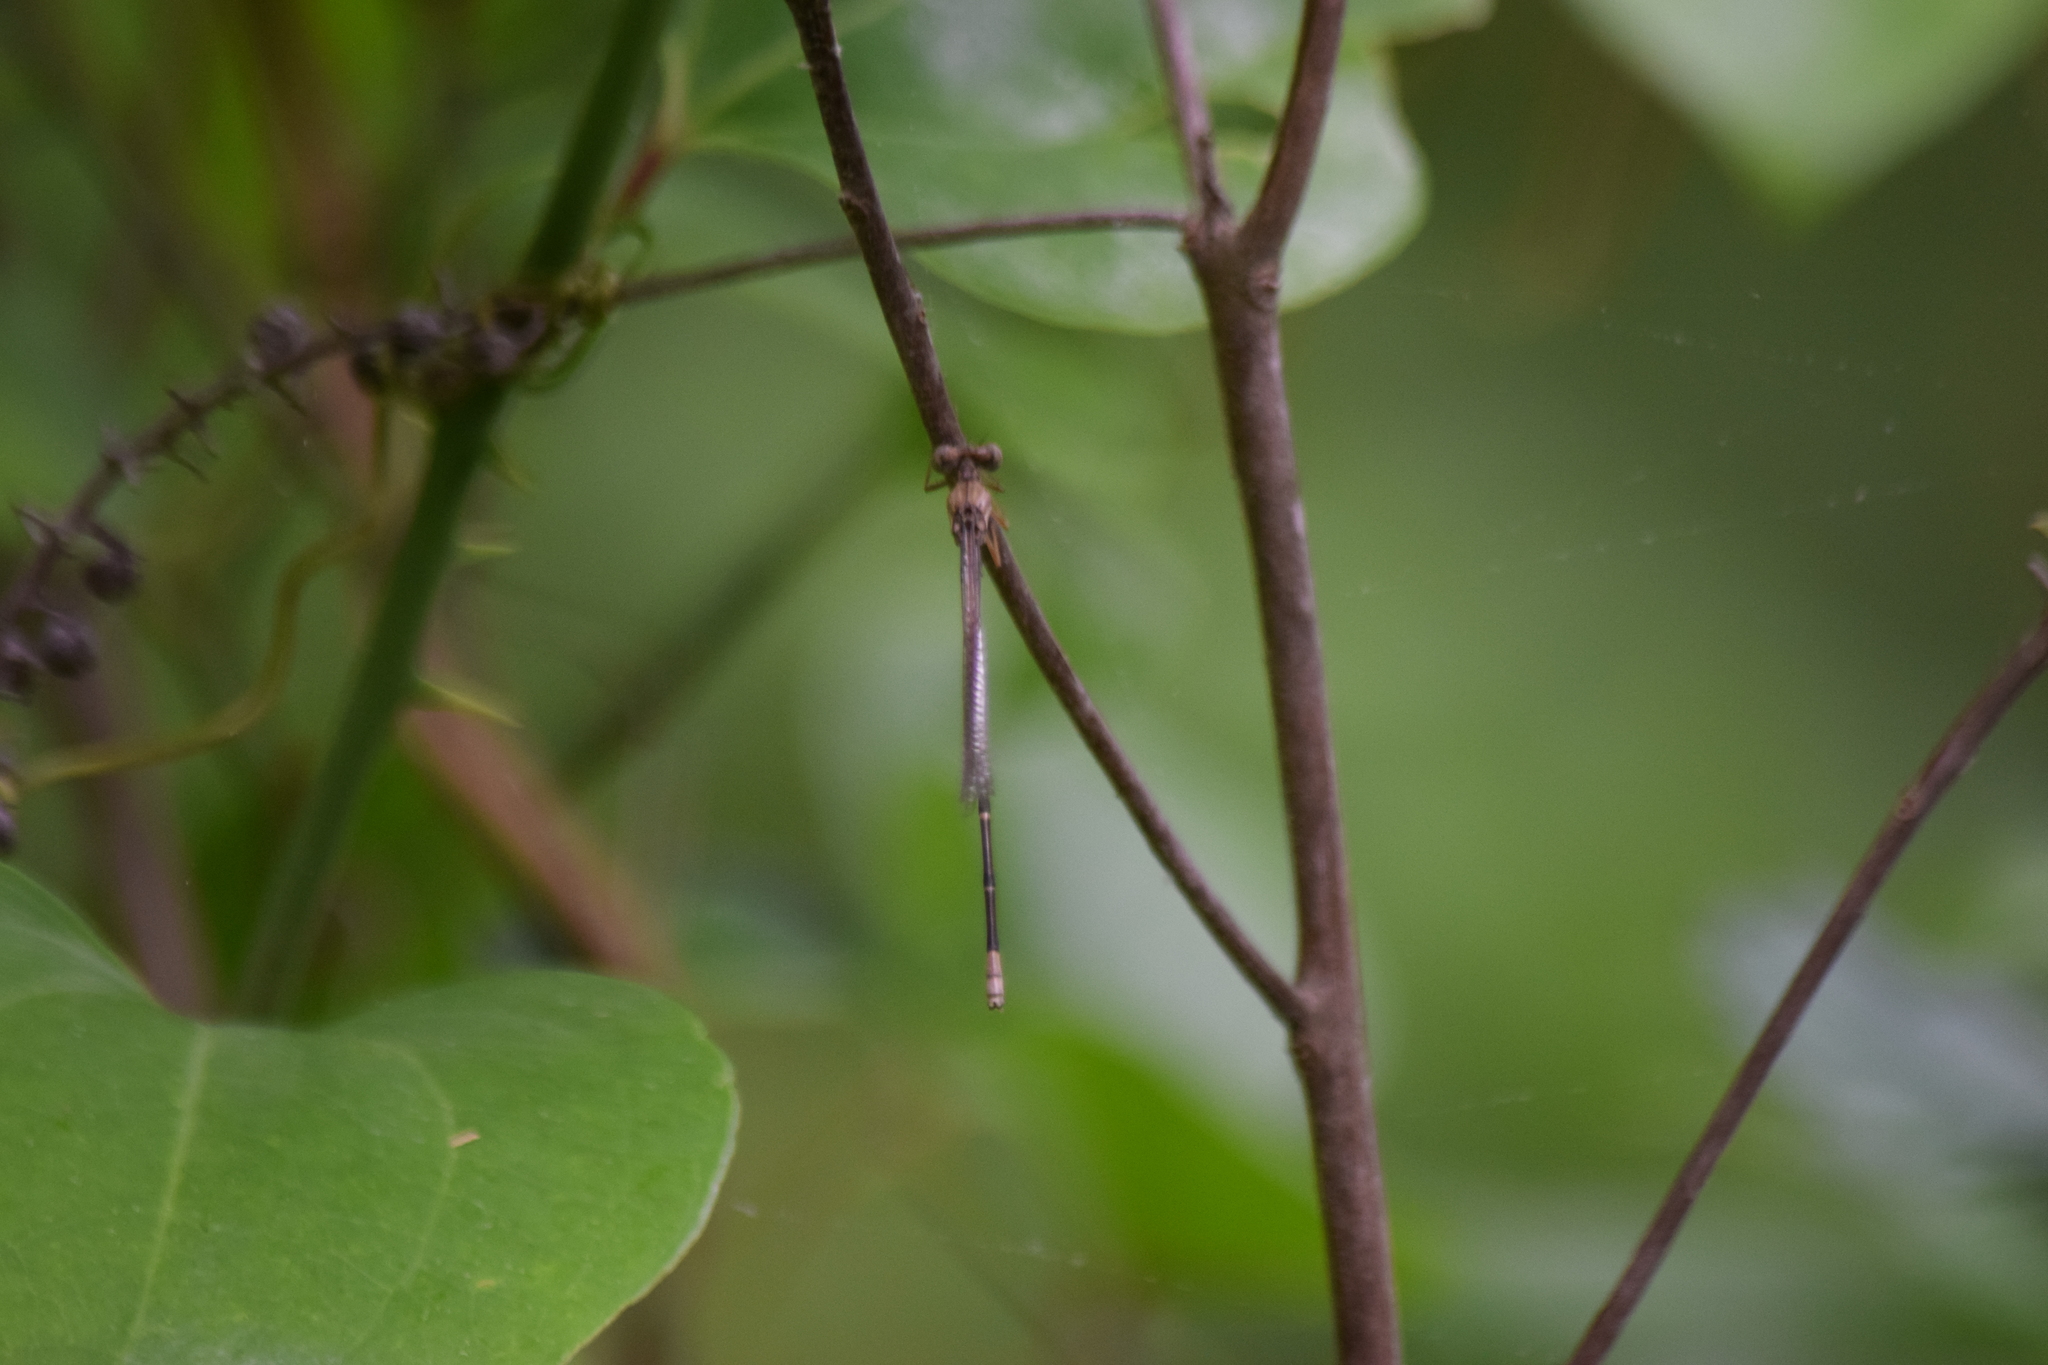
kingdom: Animalia
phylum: Arthropoda
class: Insecta
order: Odonata
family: Coenagrionidae
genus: Argia
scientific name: Argia apicalis
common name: Blue-fronted dancer
